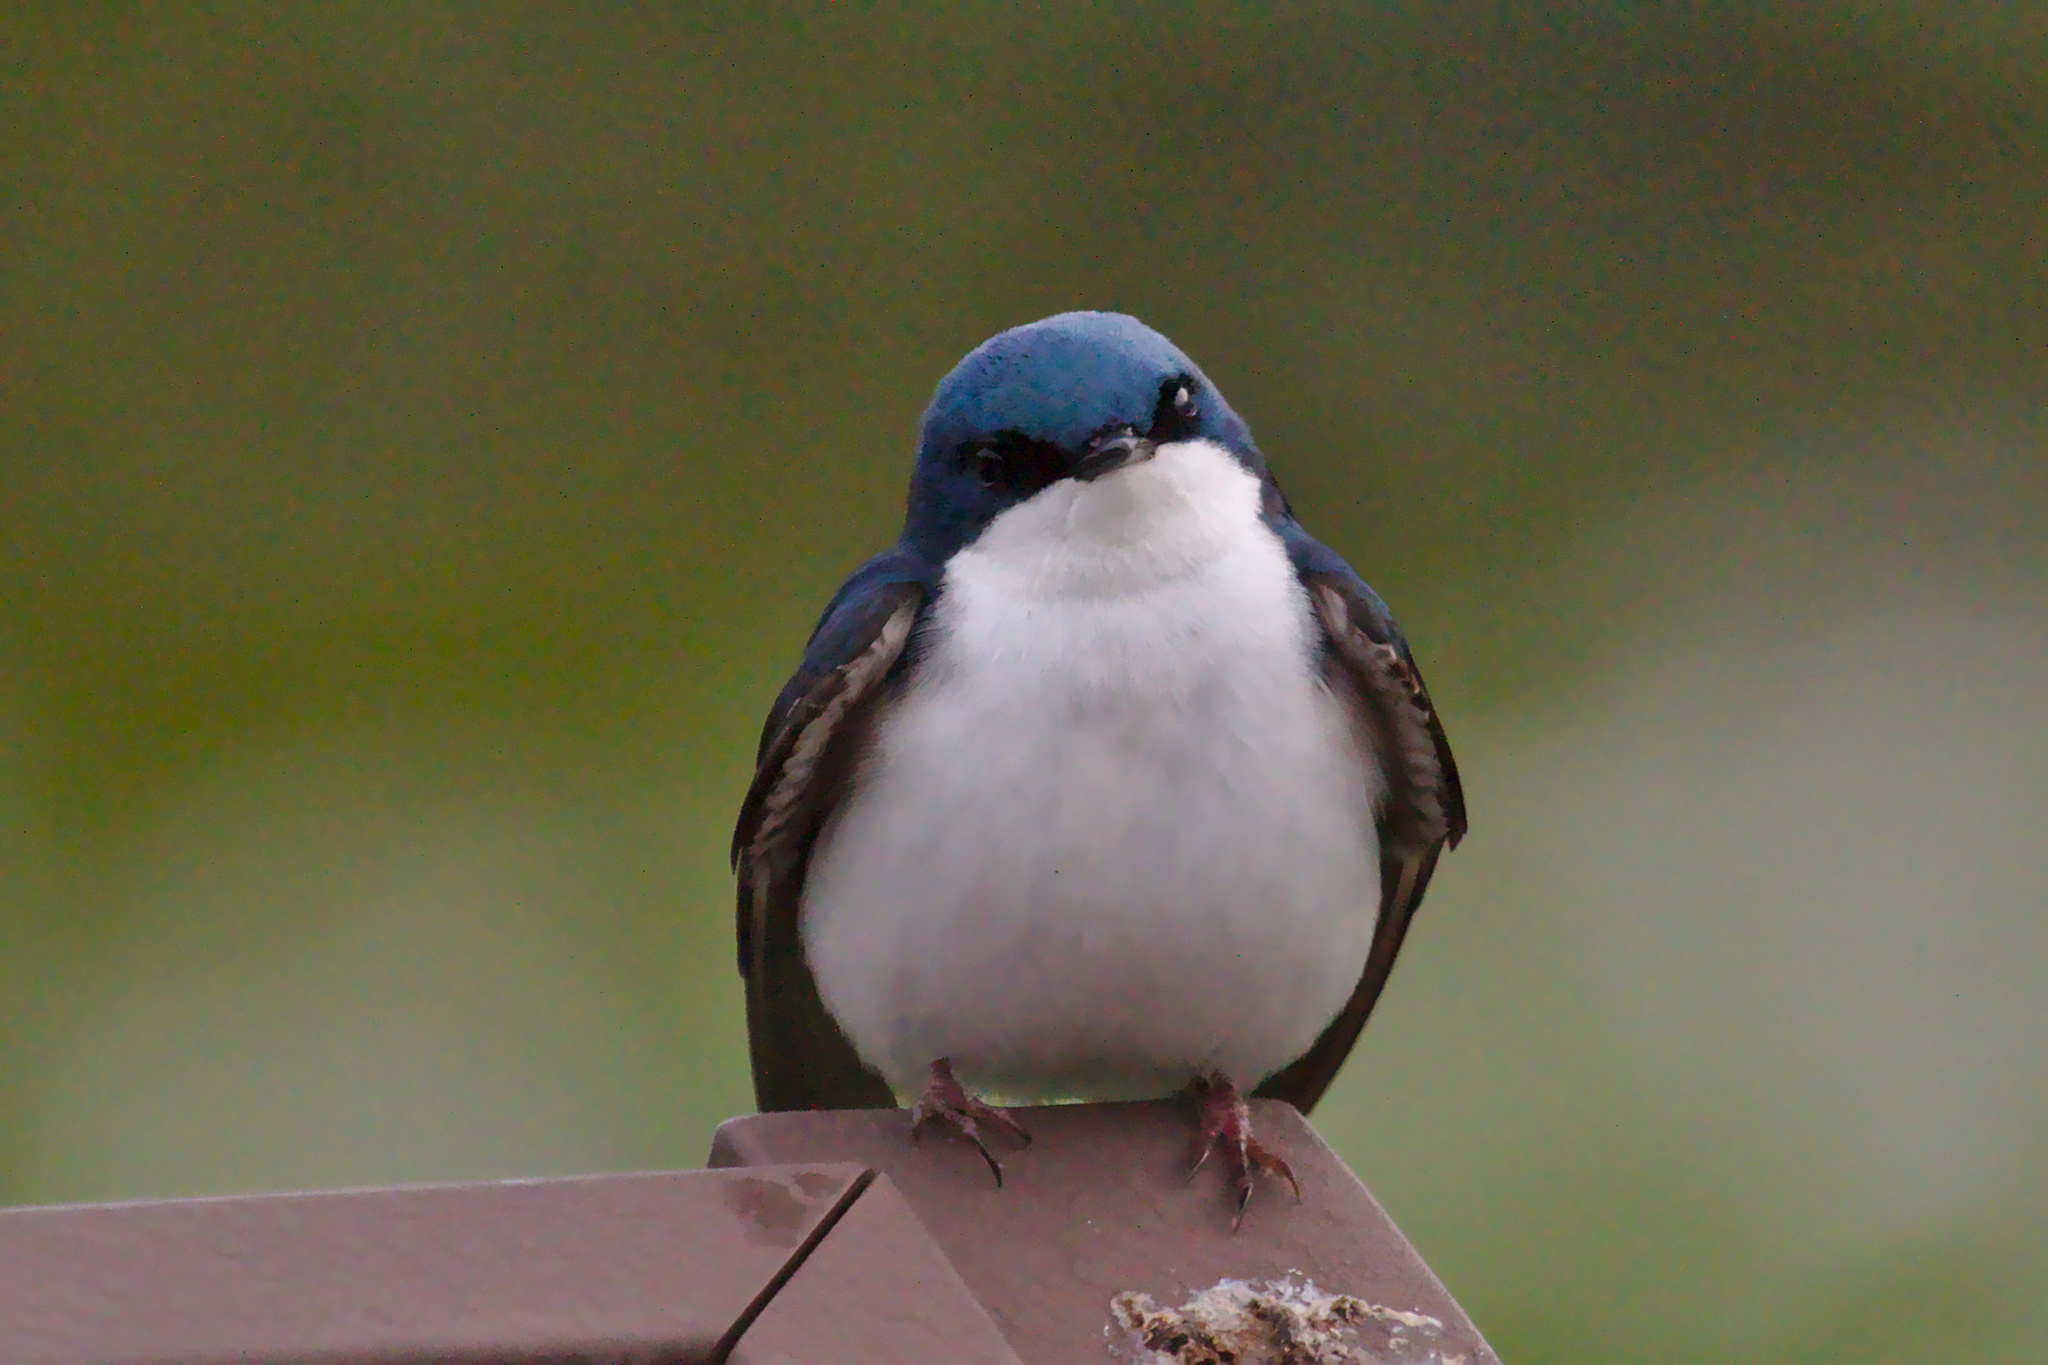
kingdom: Animalia
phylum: Chordata
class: Aves
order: Passeriformes
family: Hirundinidae
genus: Tachycineta
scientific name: Tachycineta bicolor
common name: Tree swallow
